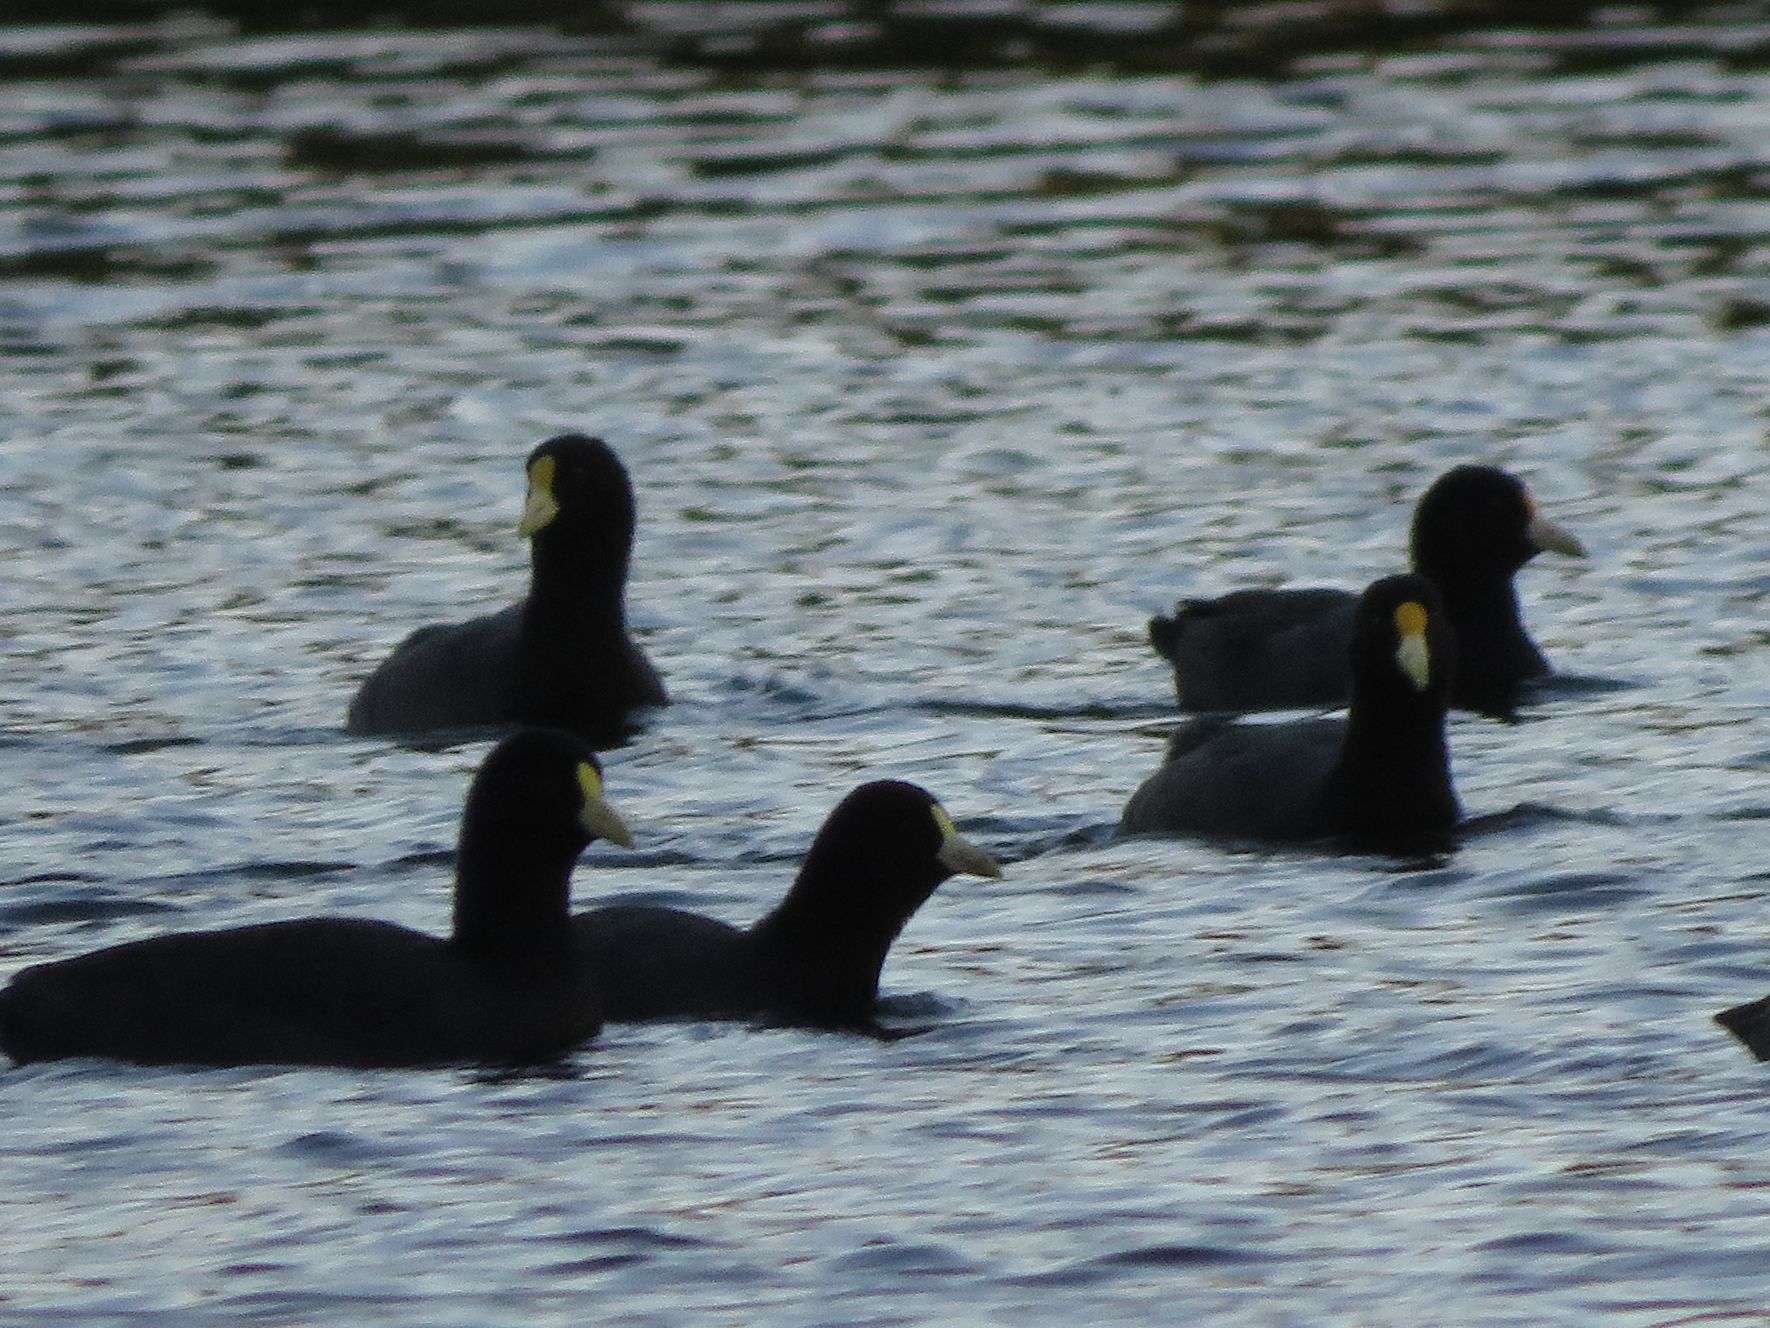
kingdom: Animalia
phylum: Chordata
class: Aves
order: Gruiformes
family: Rallidae
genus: Fulica
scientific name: Fulica leucoptera
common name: White-winged coot
